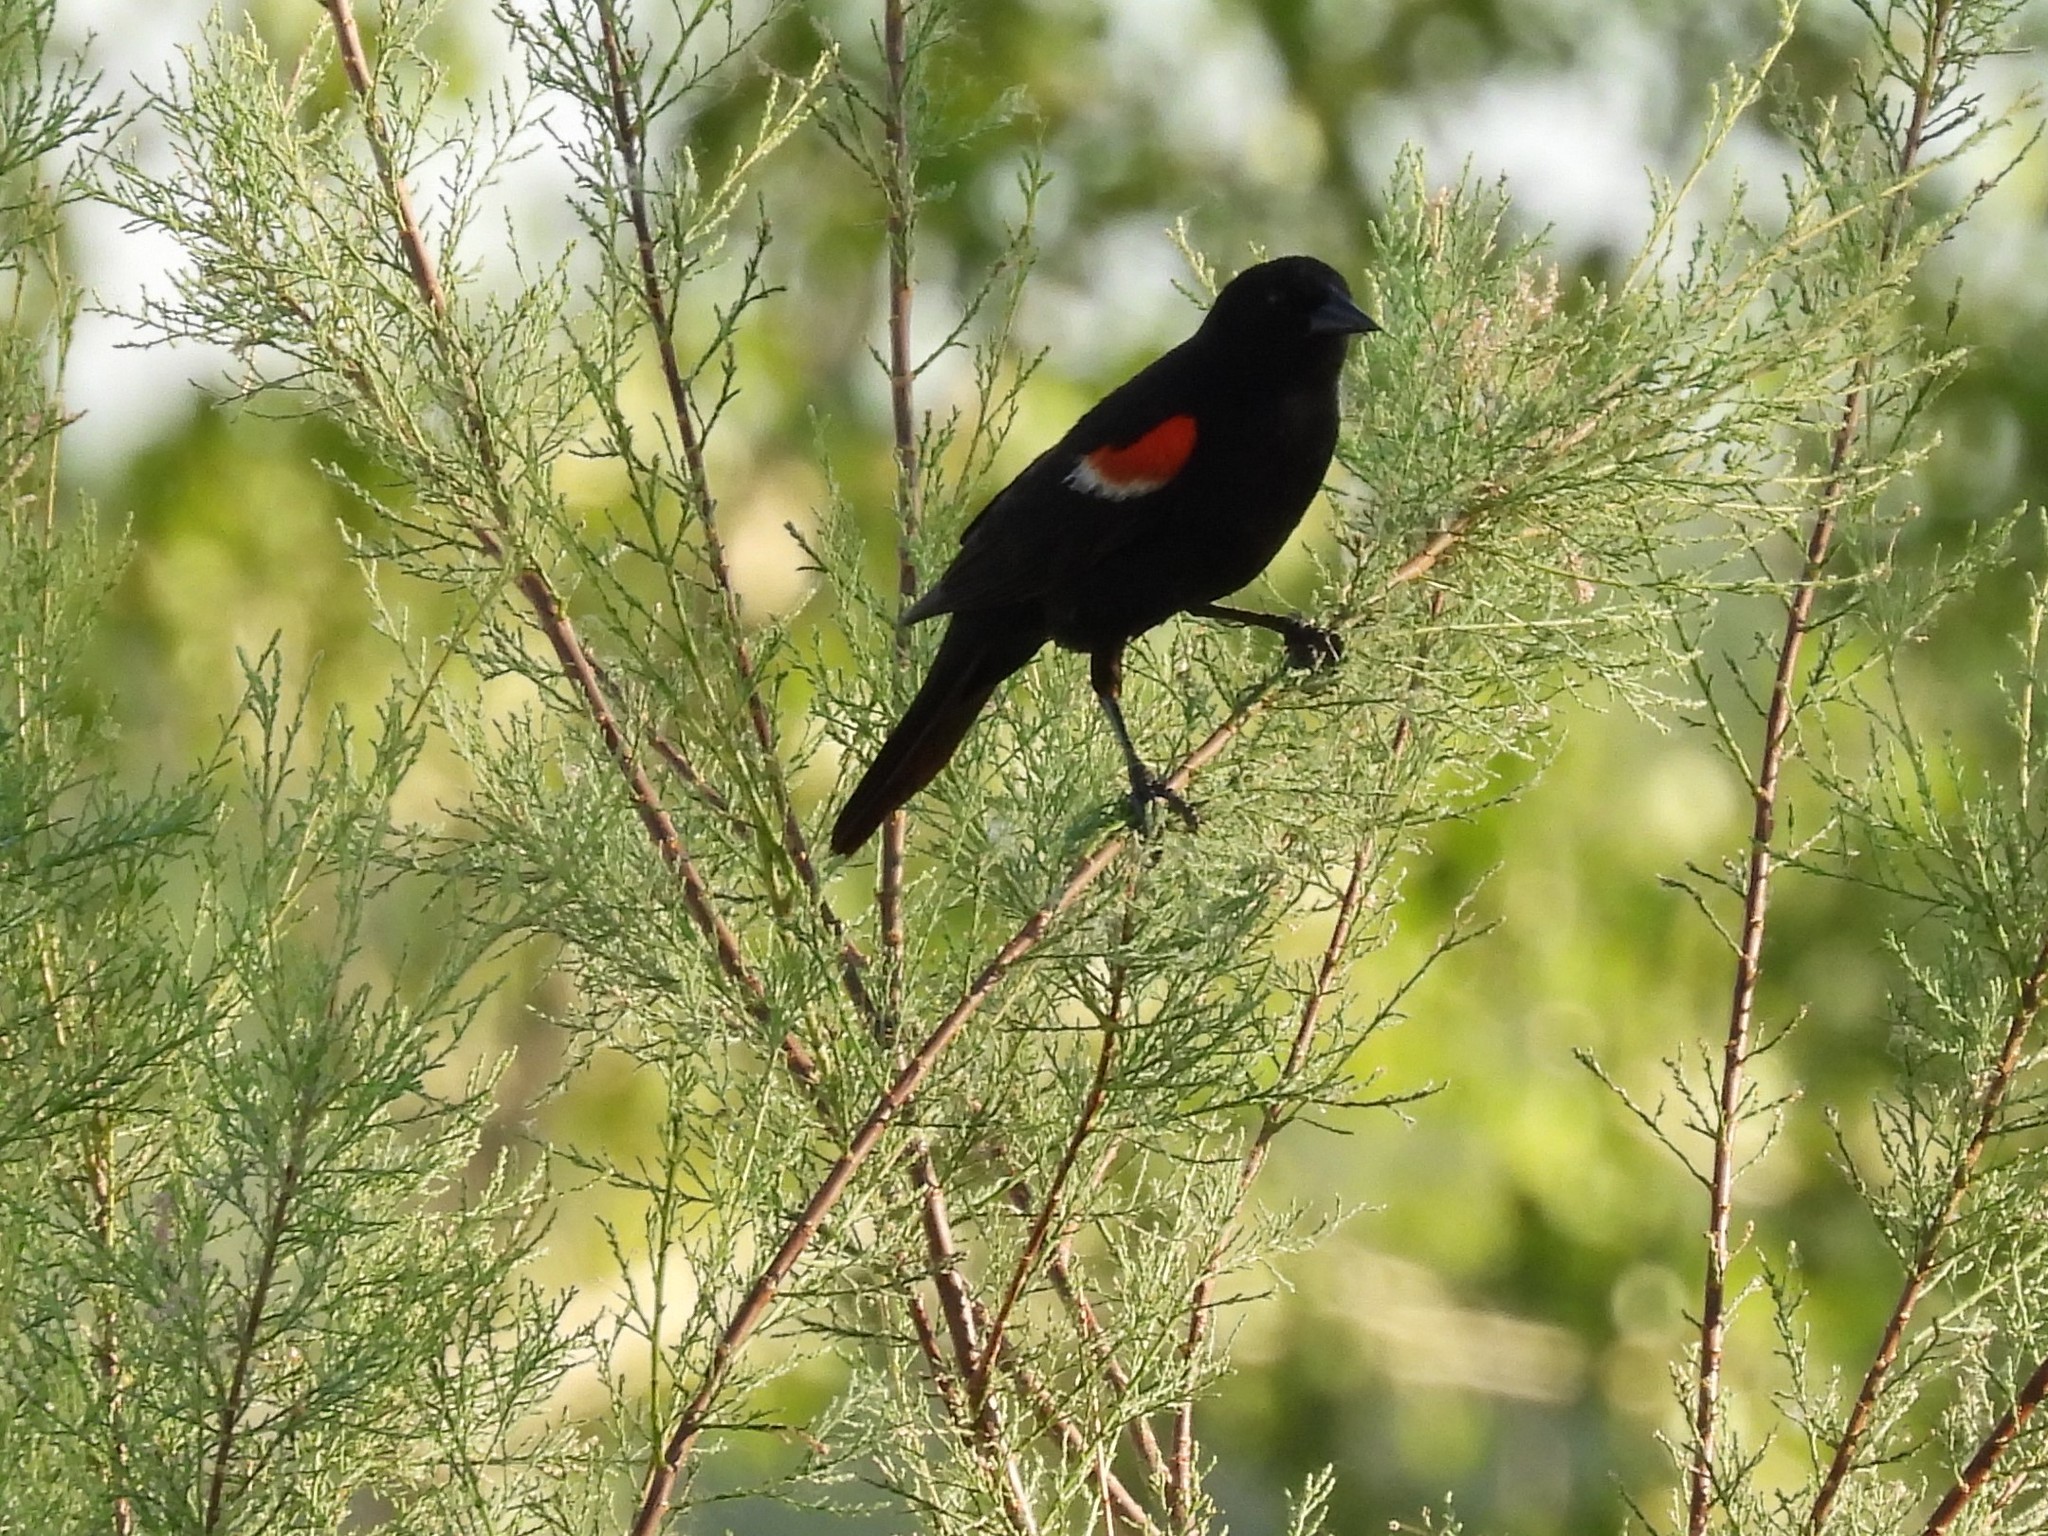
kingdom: Animalia
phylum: Chordata
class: Aves
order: Passeriformes
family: Icteridae
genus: Agelaius
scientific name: Agelaius phoeniceus
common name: Red-winged blackbird
